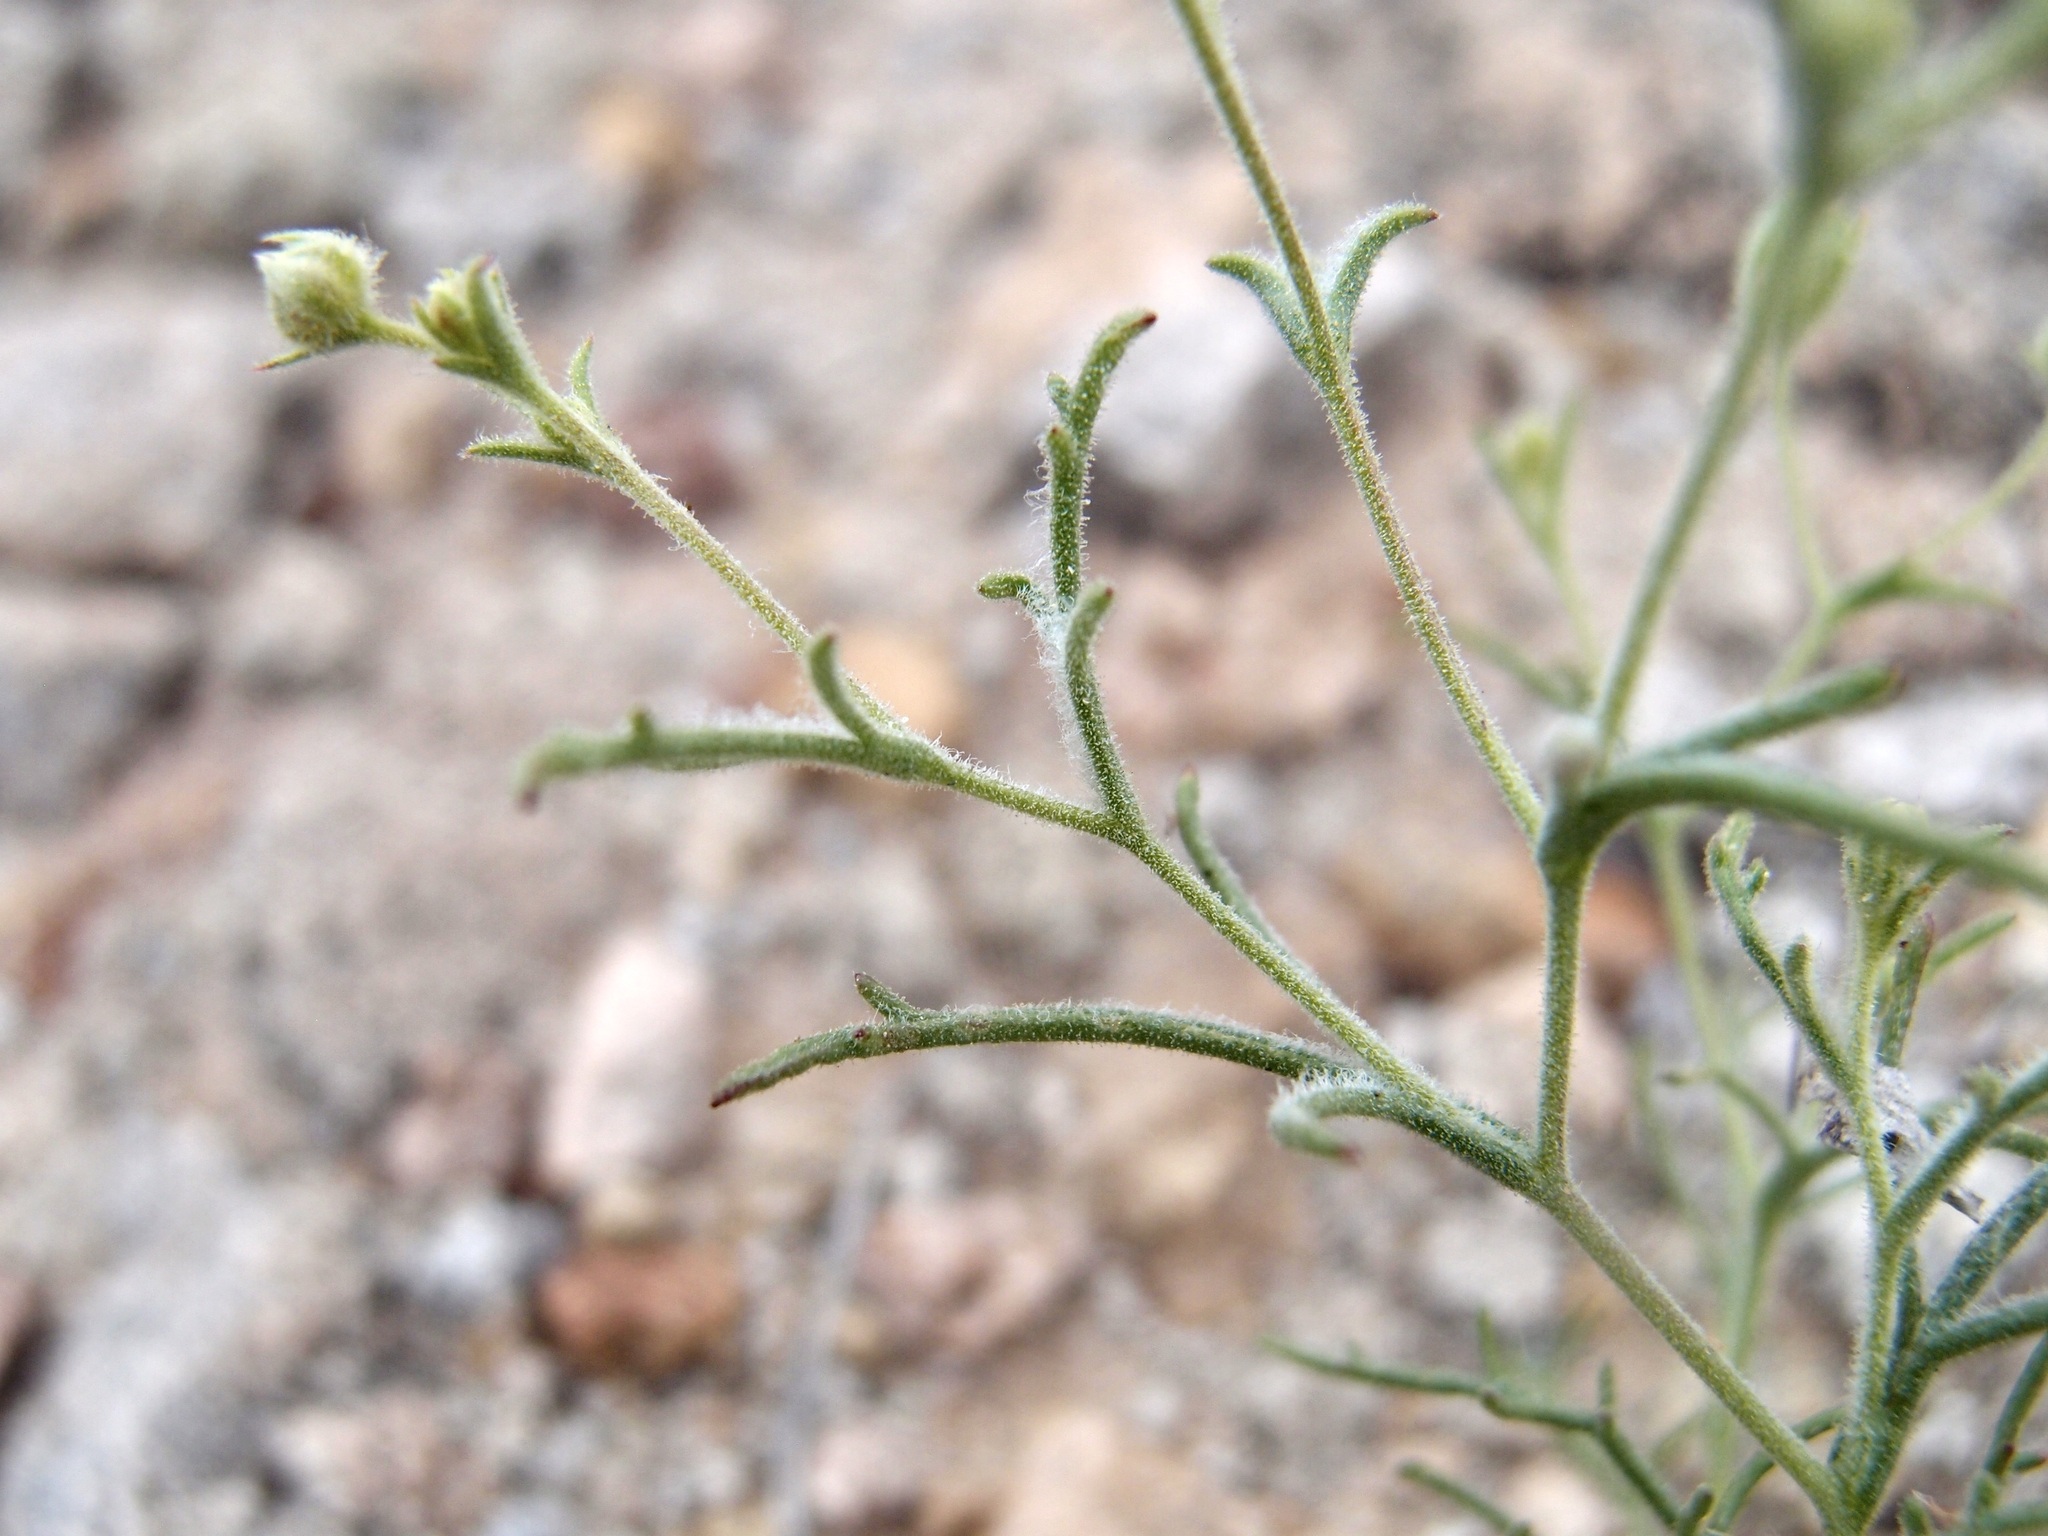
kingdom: Plantae
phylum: Tracheophyta
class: Magnoliopsida
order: Asterales
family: Asteraceae
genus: Chaenactis
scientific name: Chaenactis carphoclinia
